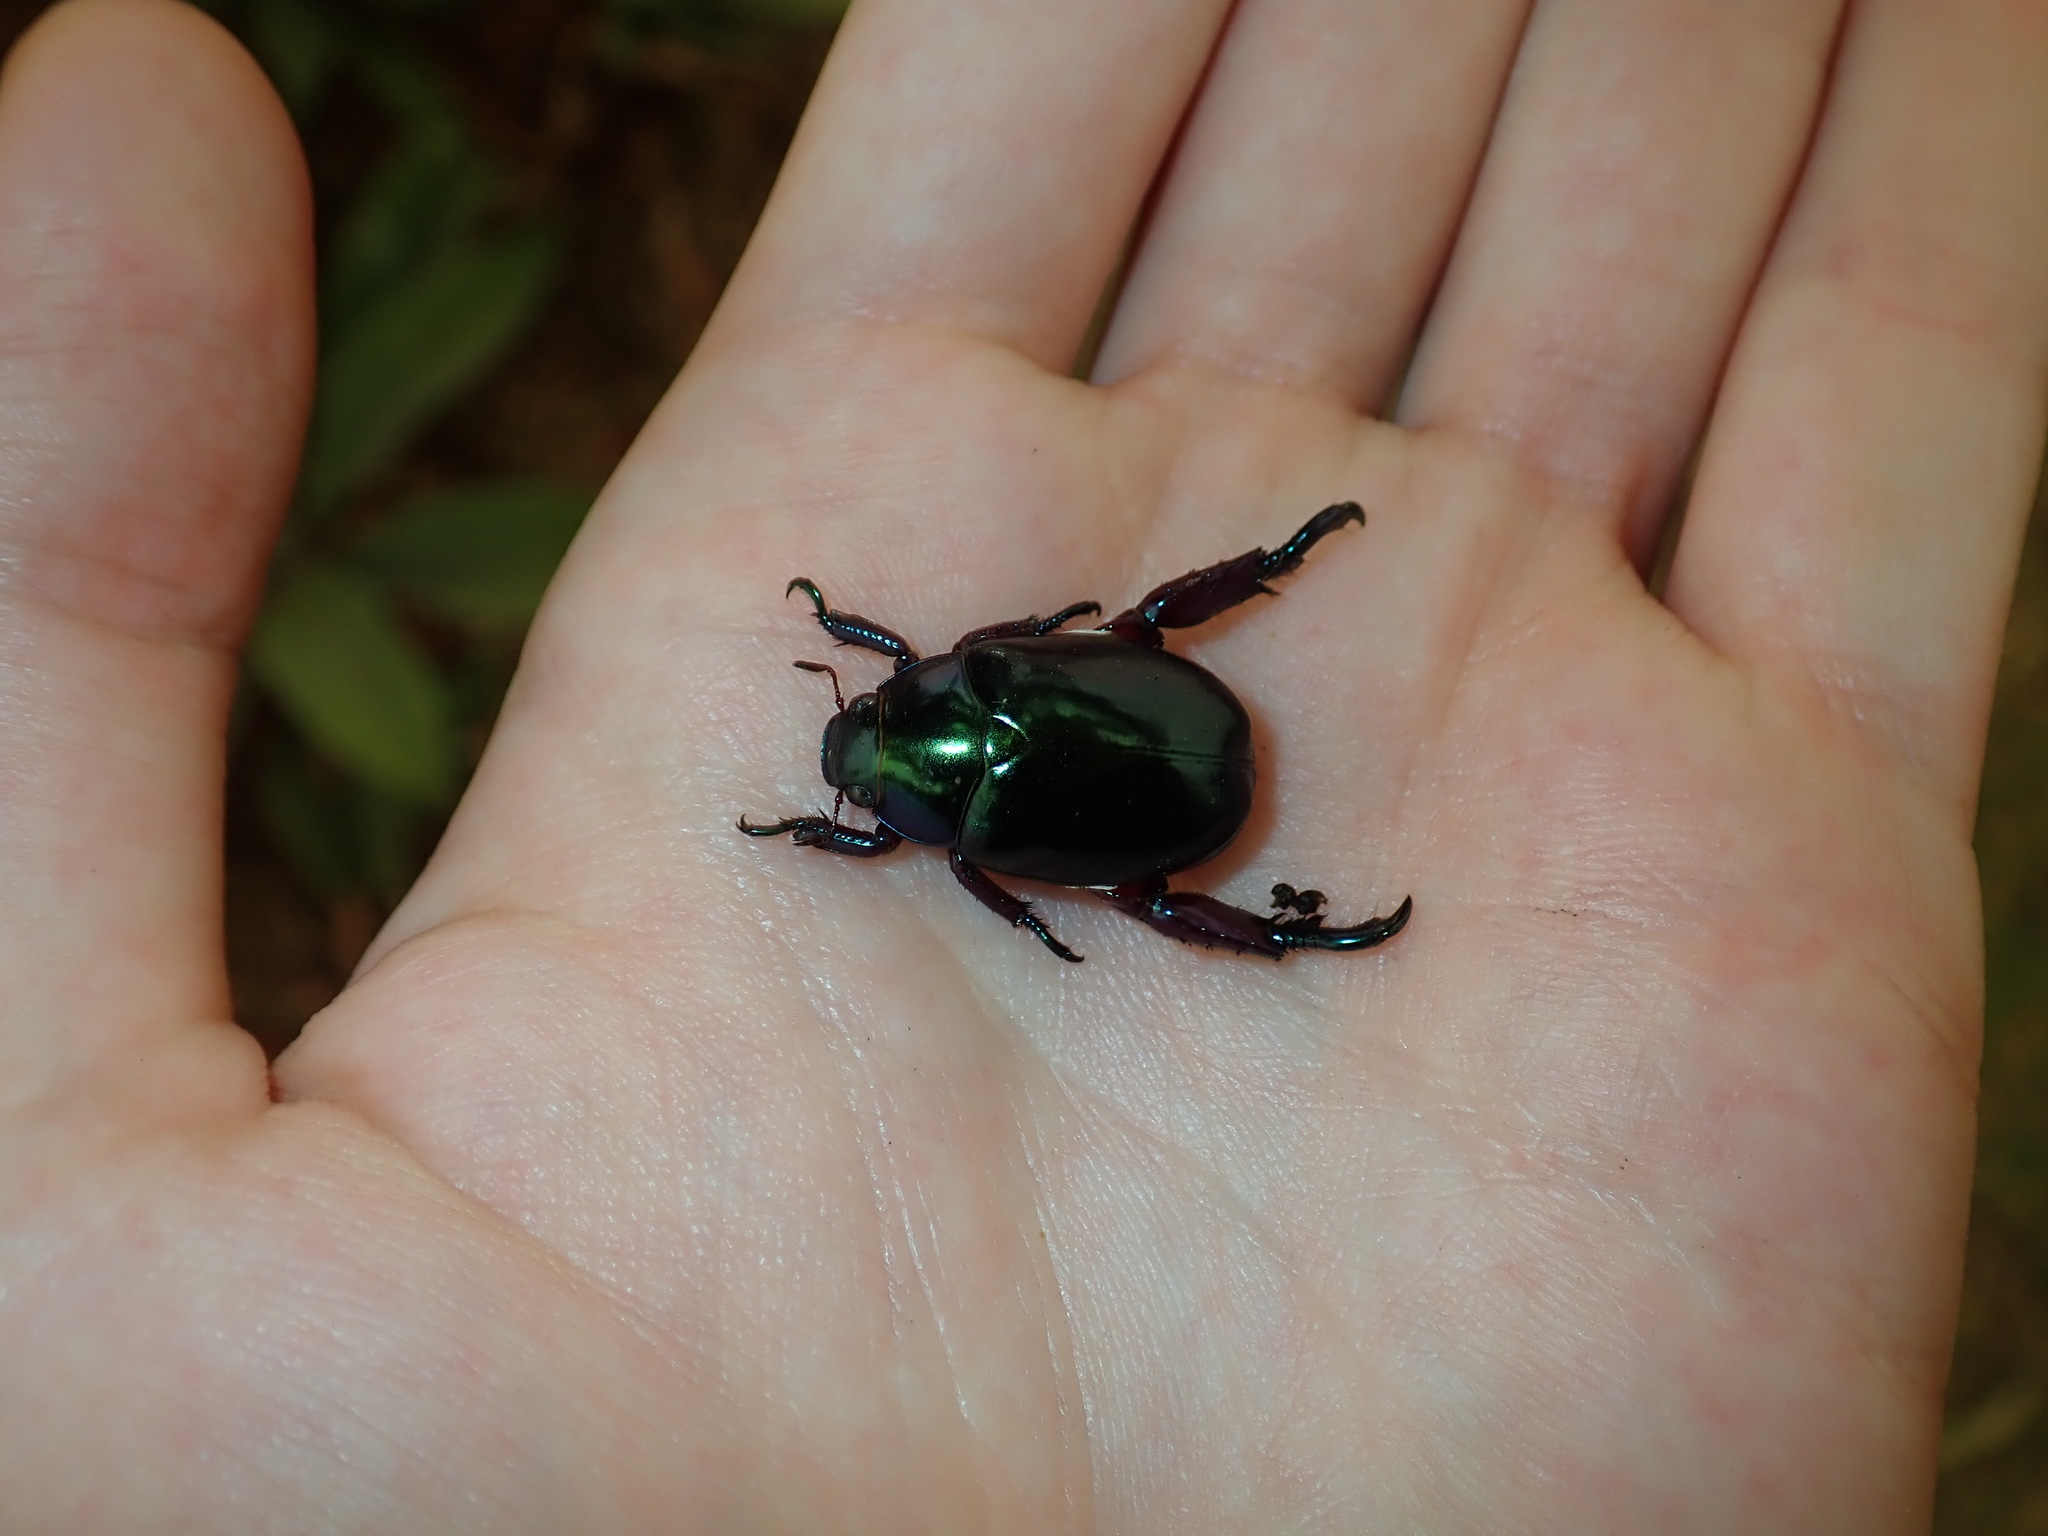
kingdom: Animalia
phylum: Arthropoda
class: Insecta
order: Coleoptera
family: Scarabaeidae
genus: Repsimus
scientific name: Repsimus aeneus
